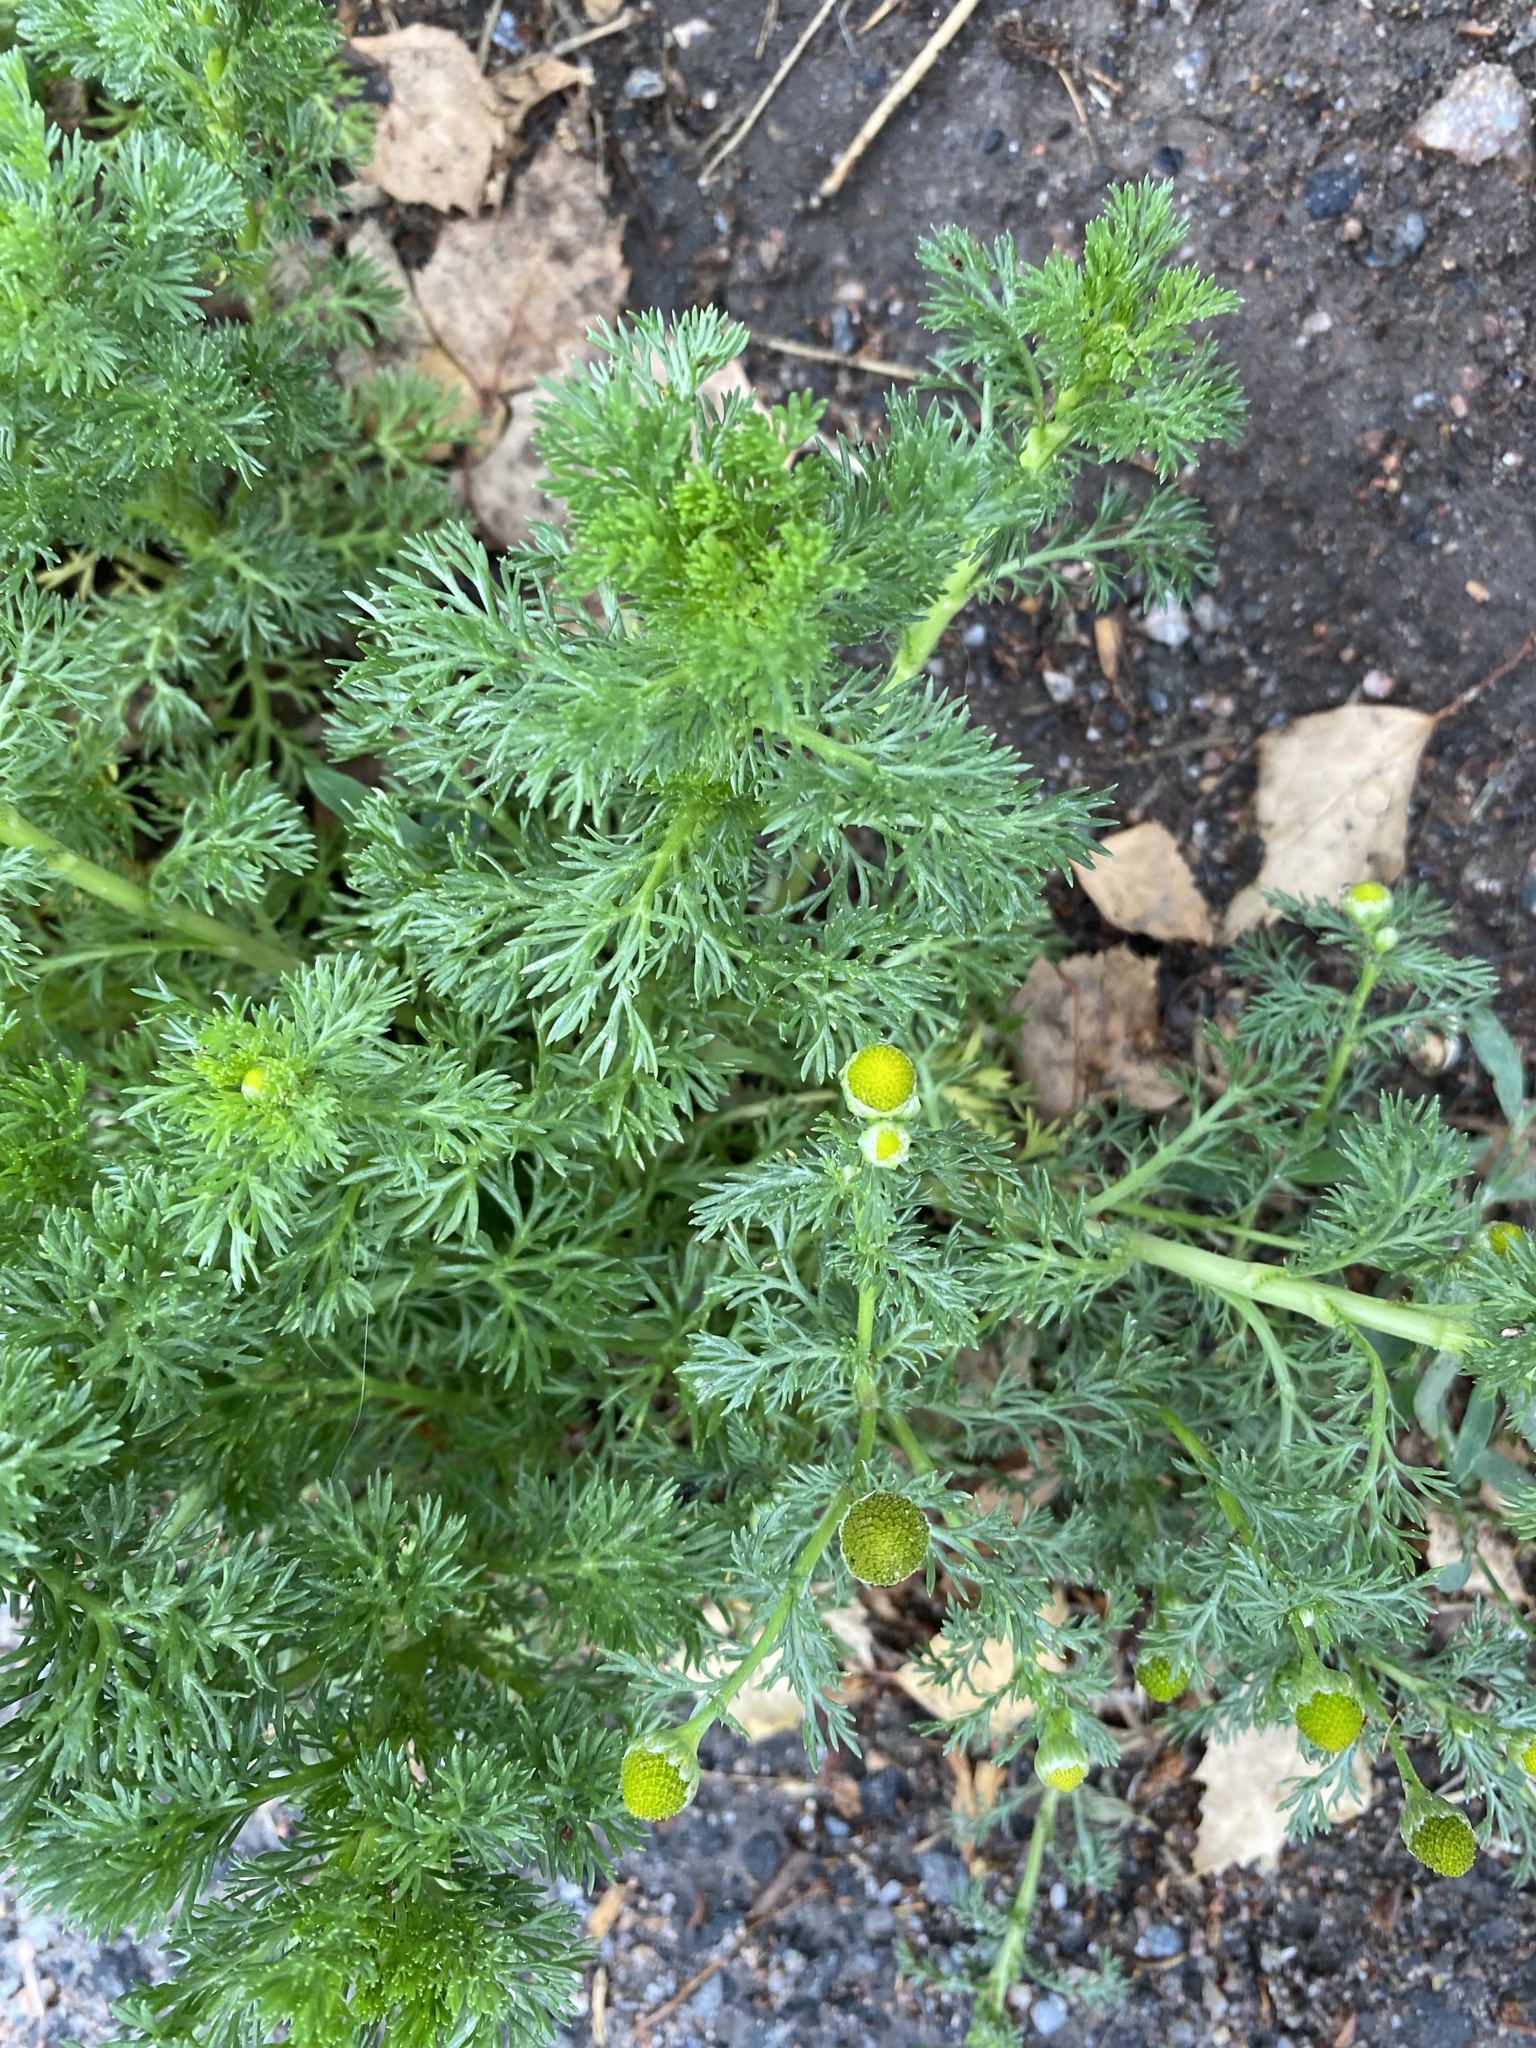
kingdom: Plantae
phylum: Tracheophyta
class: Magnoliopsida
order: Asterales
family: Asteraceae
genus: Matricaria
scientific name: Matricaria discoidea
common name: Disc mayweed
